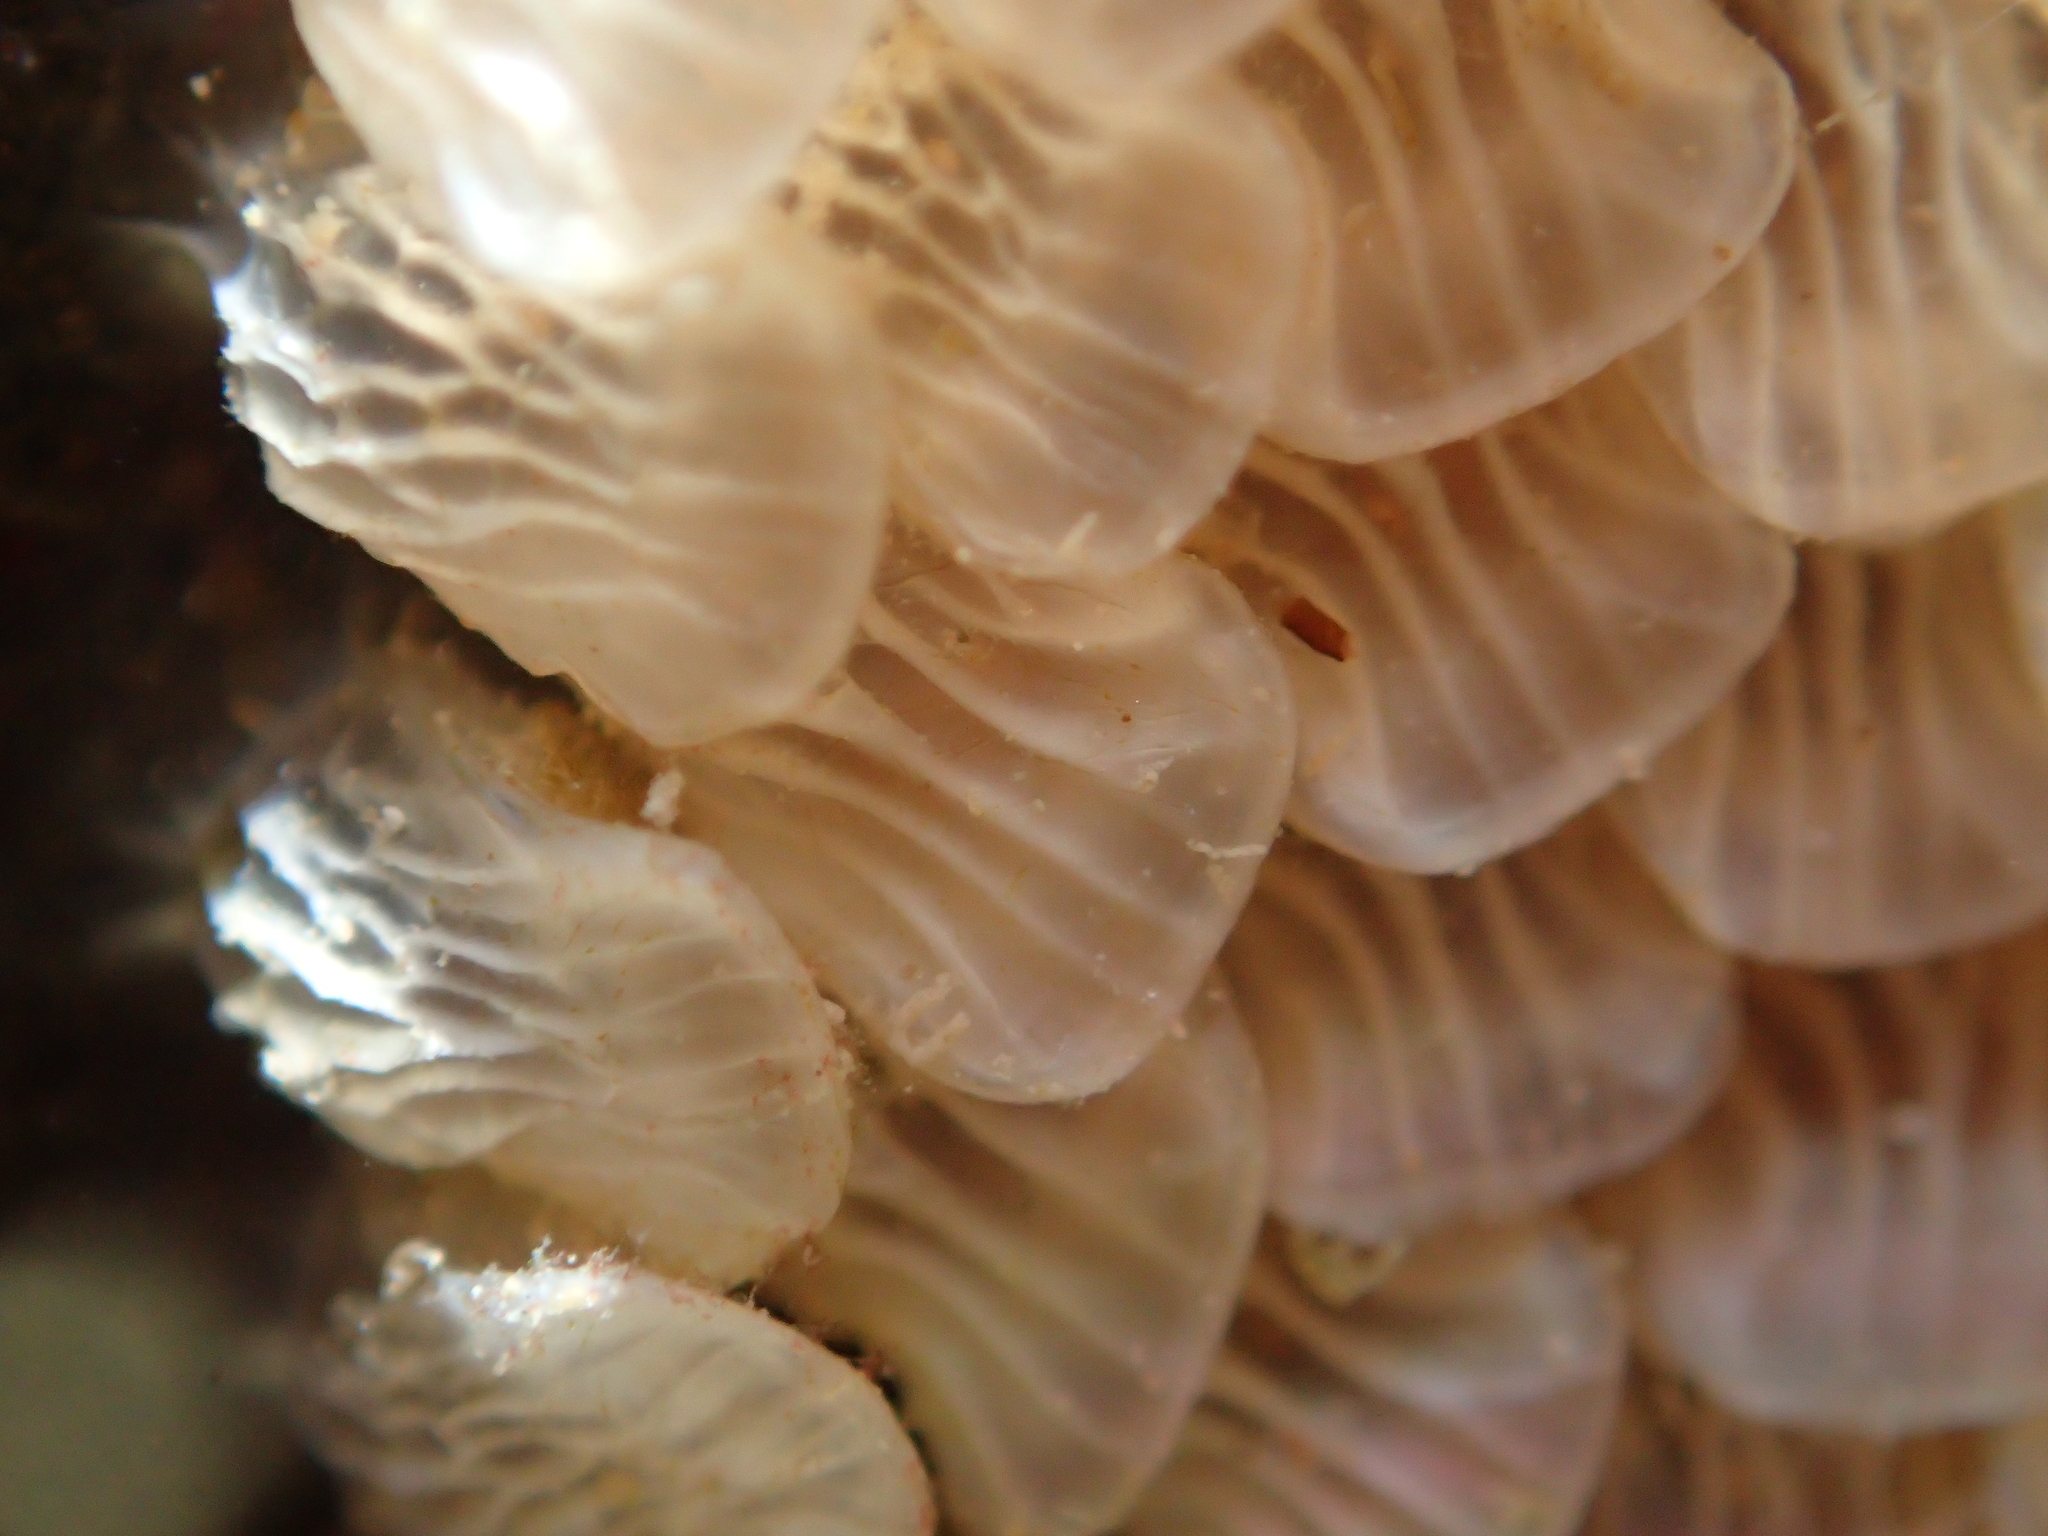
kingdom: Animalia
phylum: Mollusca
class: Gastropoda
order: Neogastropoda
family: Cominellidae
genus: Cominella
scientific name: Cominella virgata
